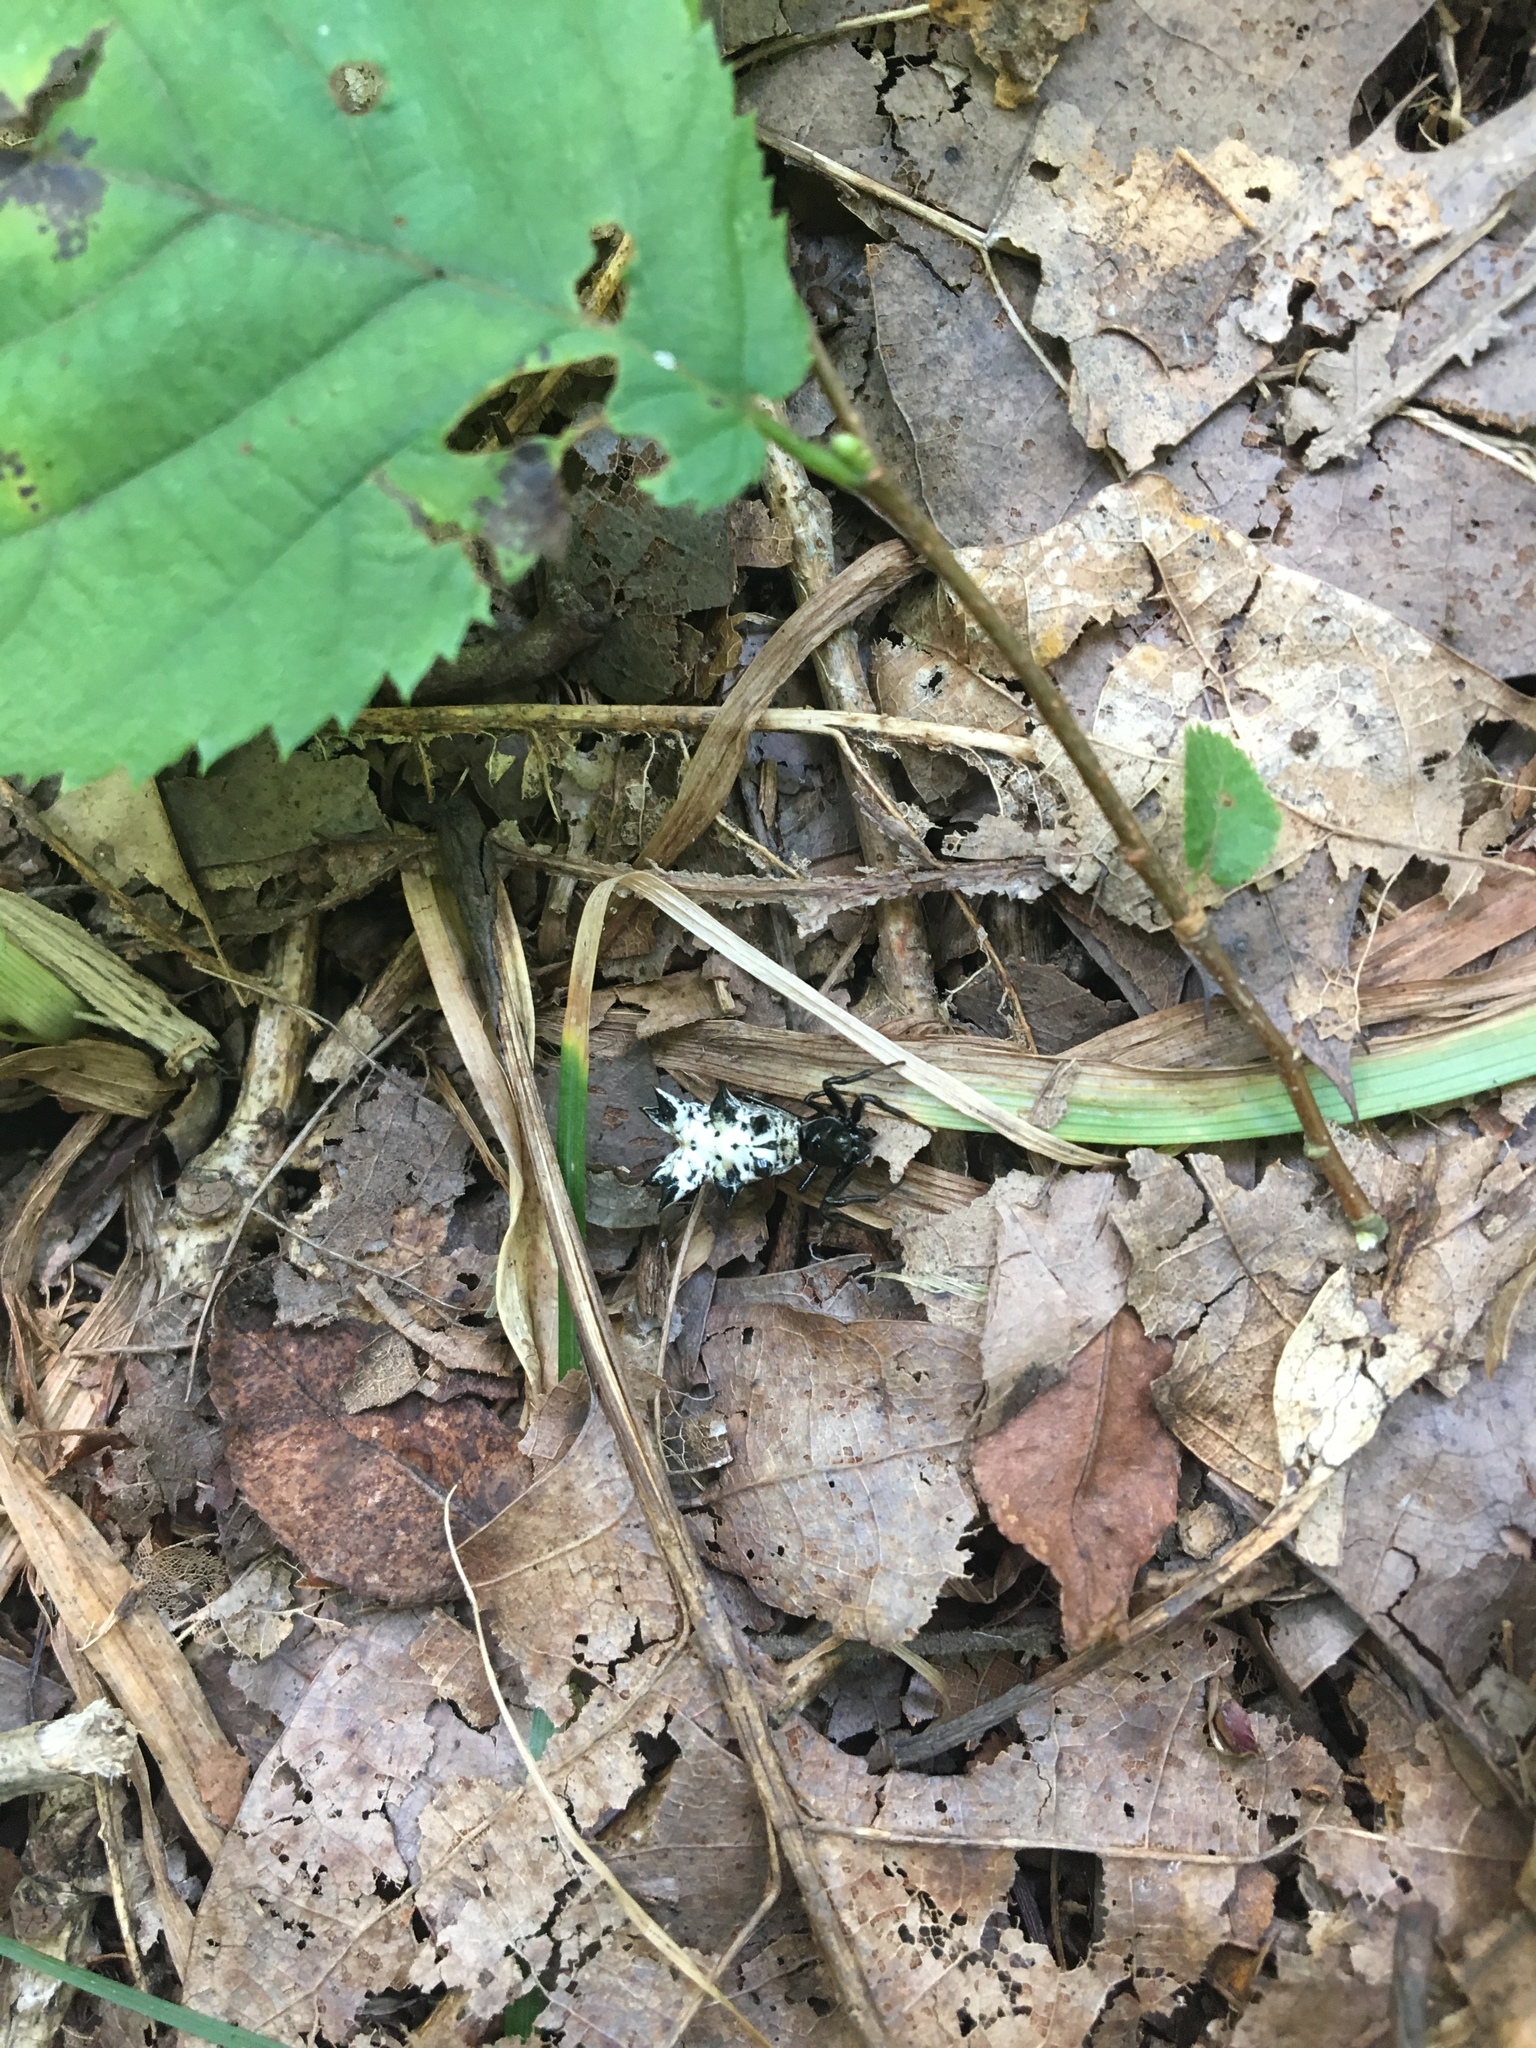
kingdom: Animalia
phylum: Arthropoda
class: Arachnida
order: Araneae
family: Araneidae
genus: Micrathena
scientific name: Micrathena gracilis
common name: Orb weavers
